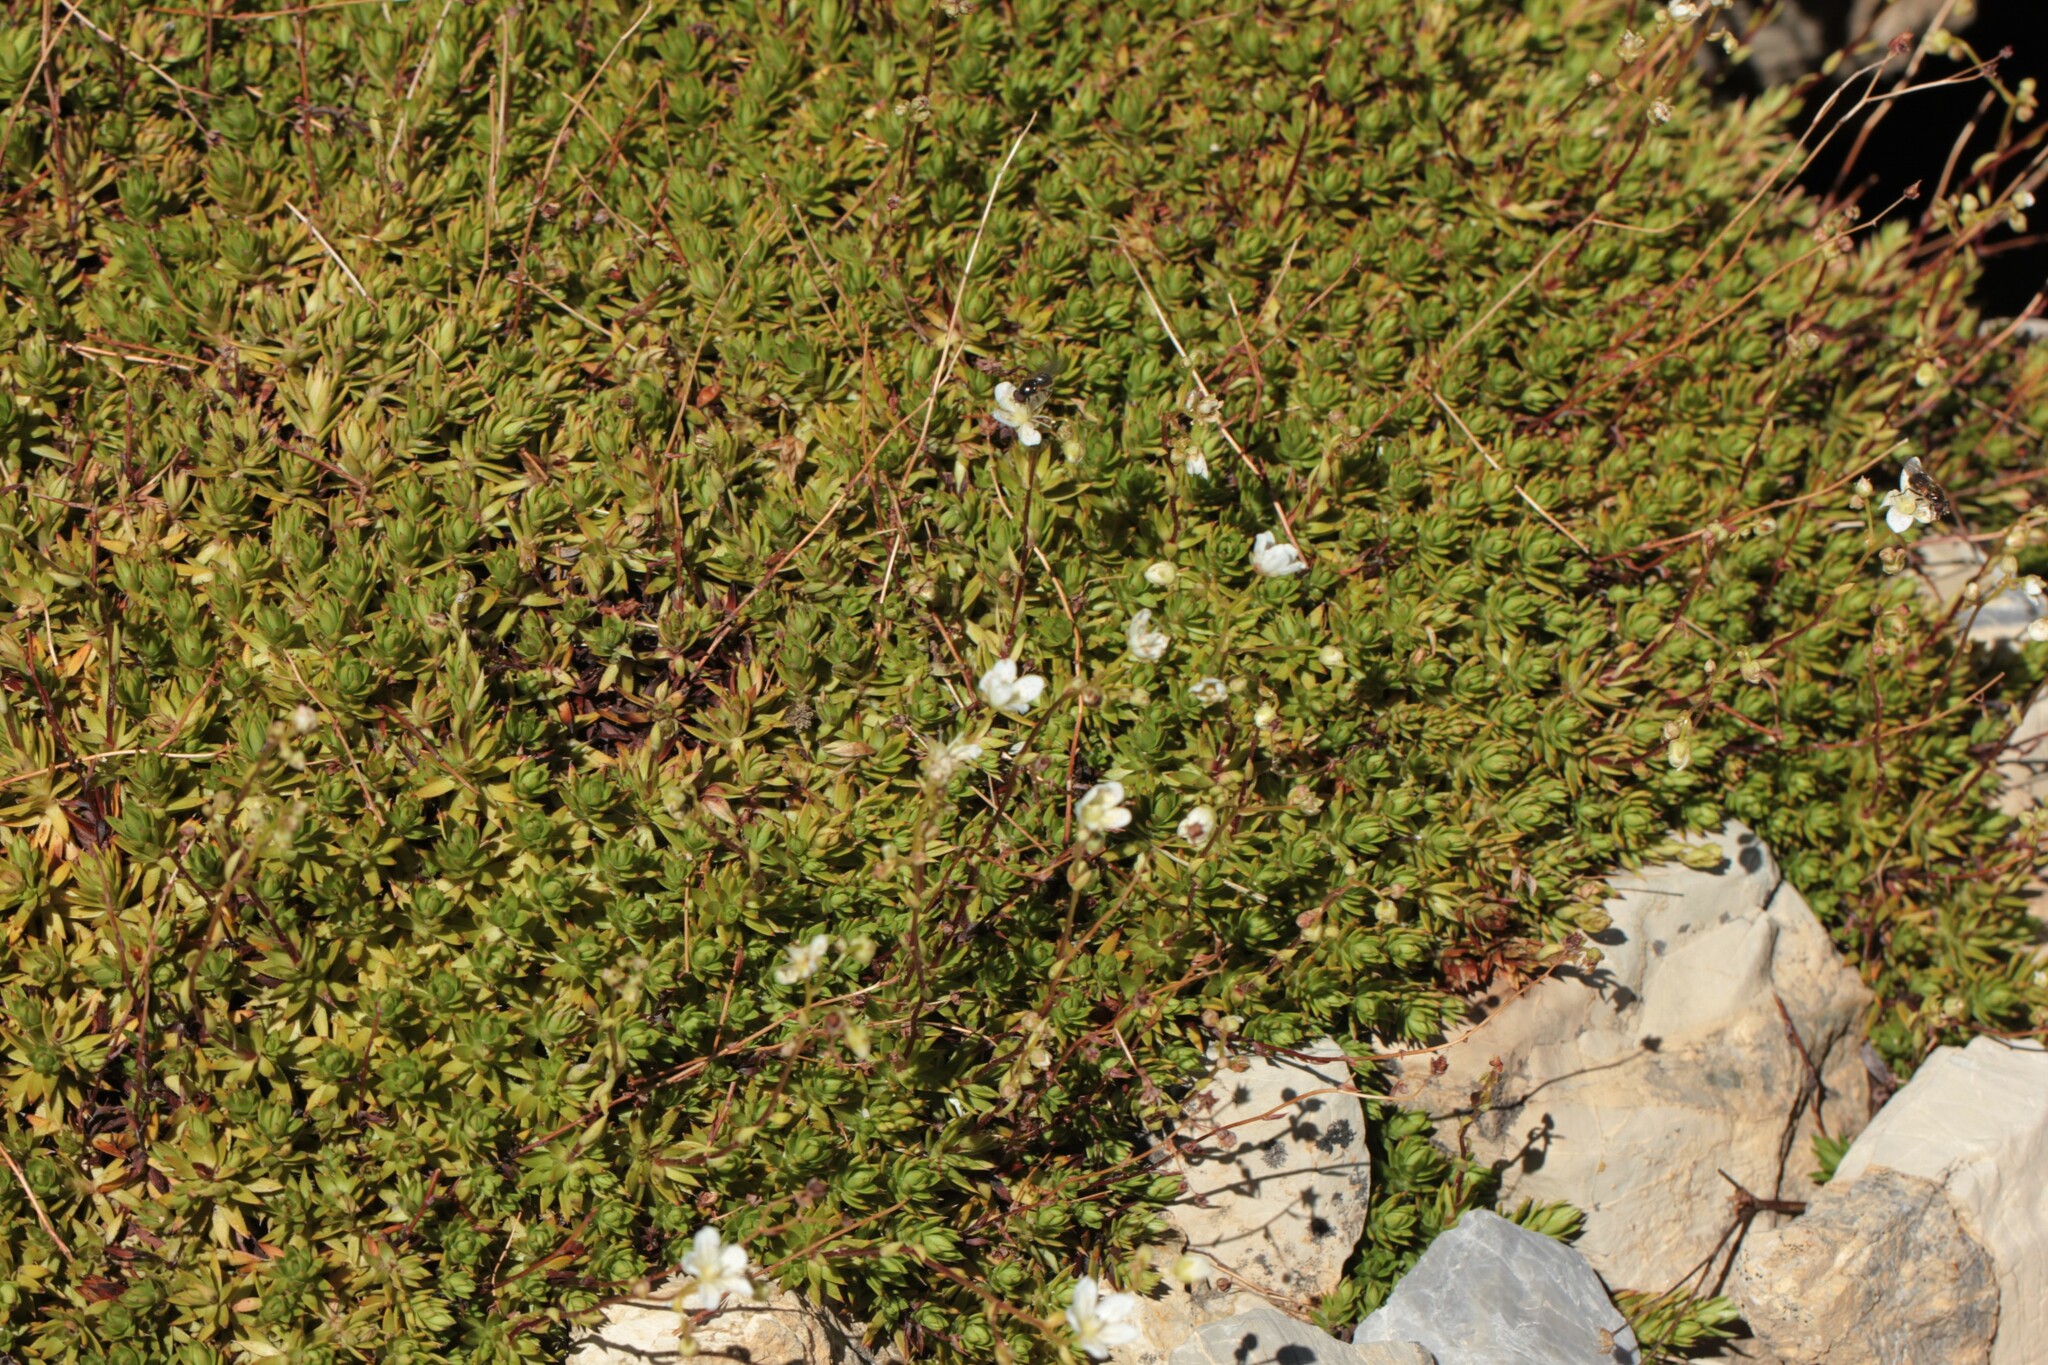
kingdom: Plantae
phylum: Tracheophyta
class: Magnoliopsida
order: Saxifragales
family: Saxifragaceae
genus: Saxifraga
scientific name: Saxifraga bronchialis
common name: Matted saxifrage
